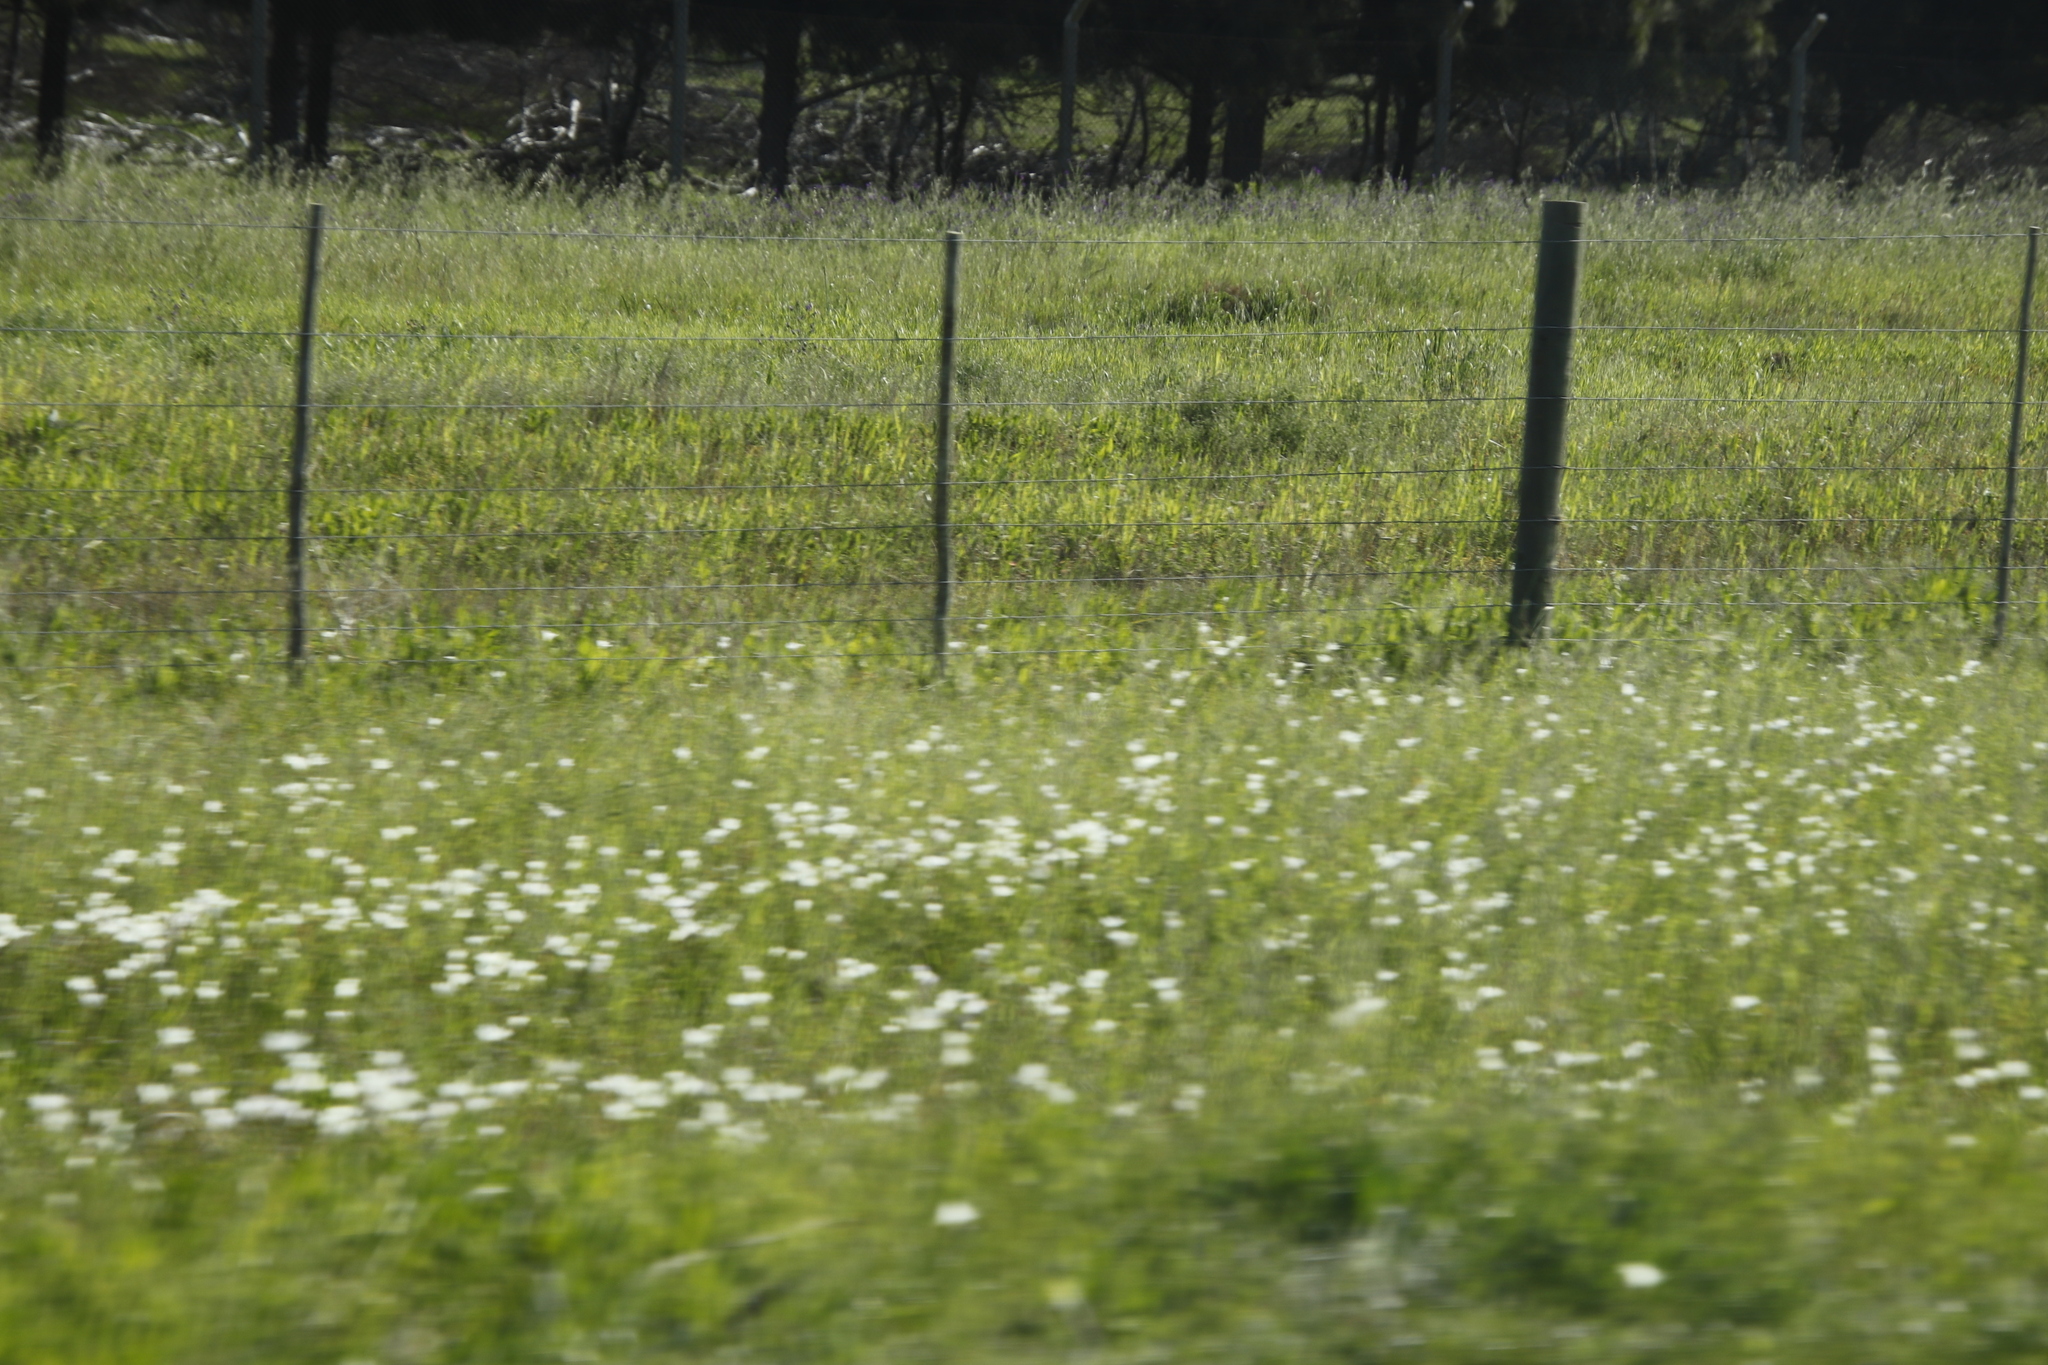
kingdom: Plantae
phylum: Tracheophyta
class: Liliopsida
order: Asparagales
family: Iridaceae
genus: Sparaxis
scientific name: Sparaxis bulbifera
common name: Harlequin-flower
